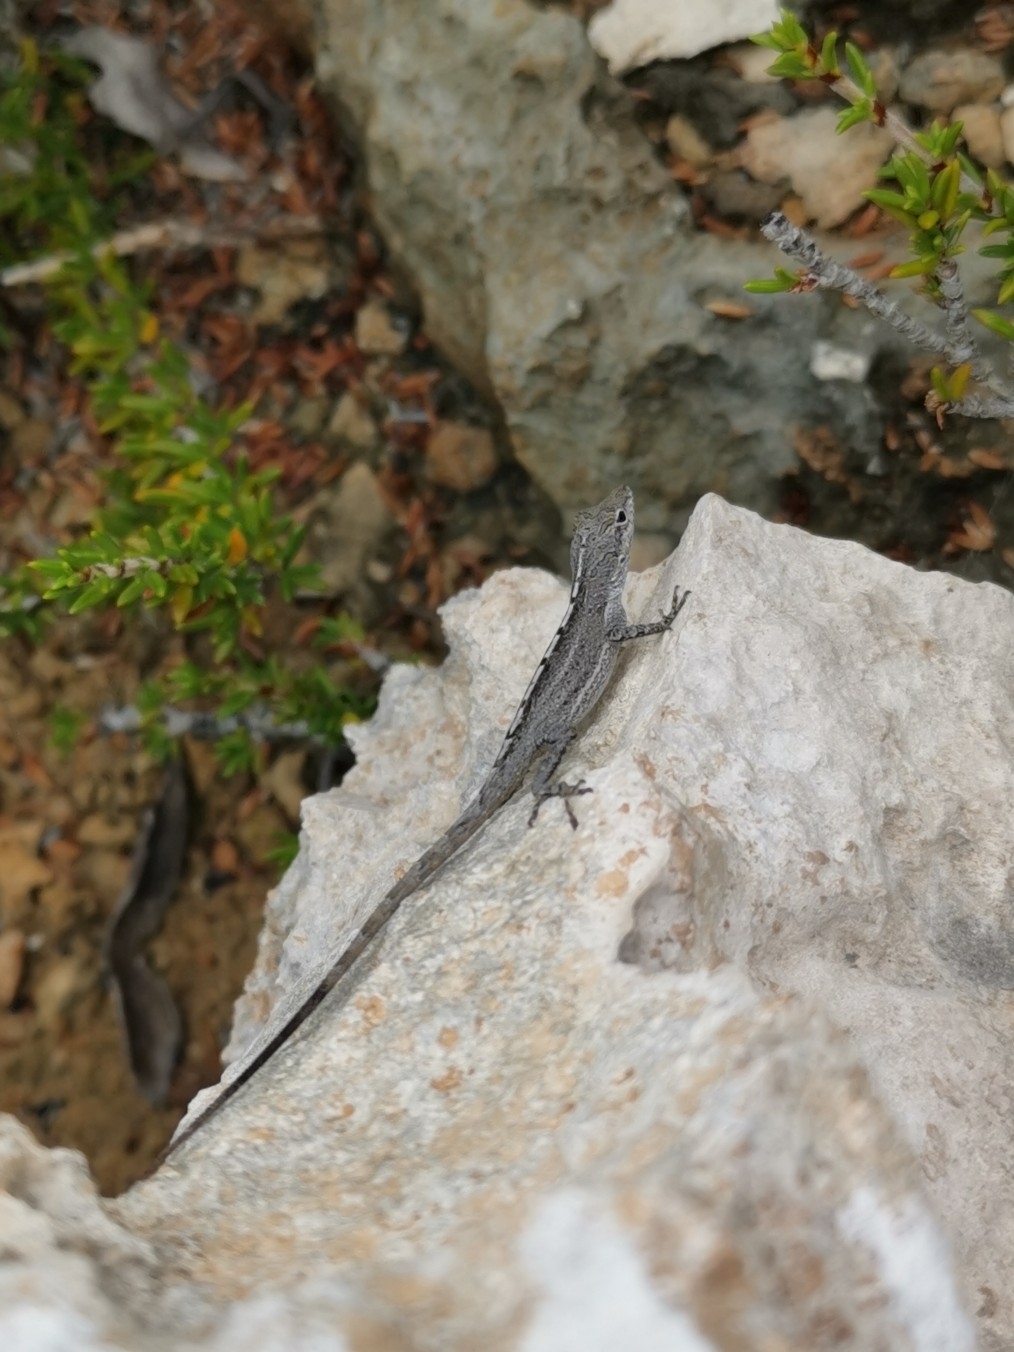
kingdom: Animalia
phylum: Chordata
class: Squamata
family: Dactyloidae
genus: Anolis
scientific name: Anolis scriptus
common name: Silver key anole
